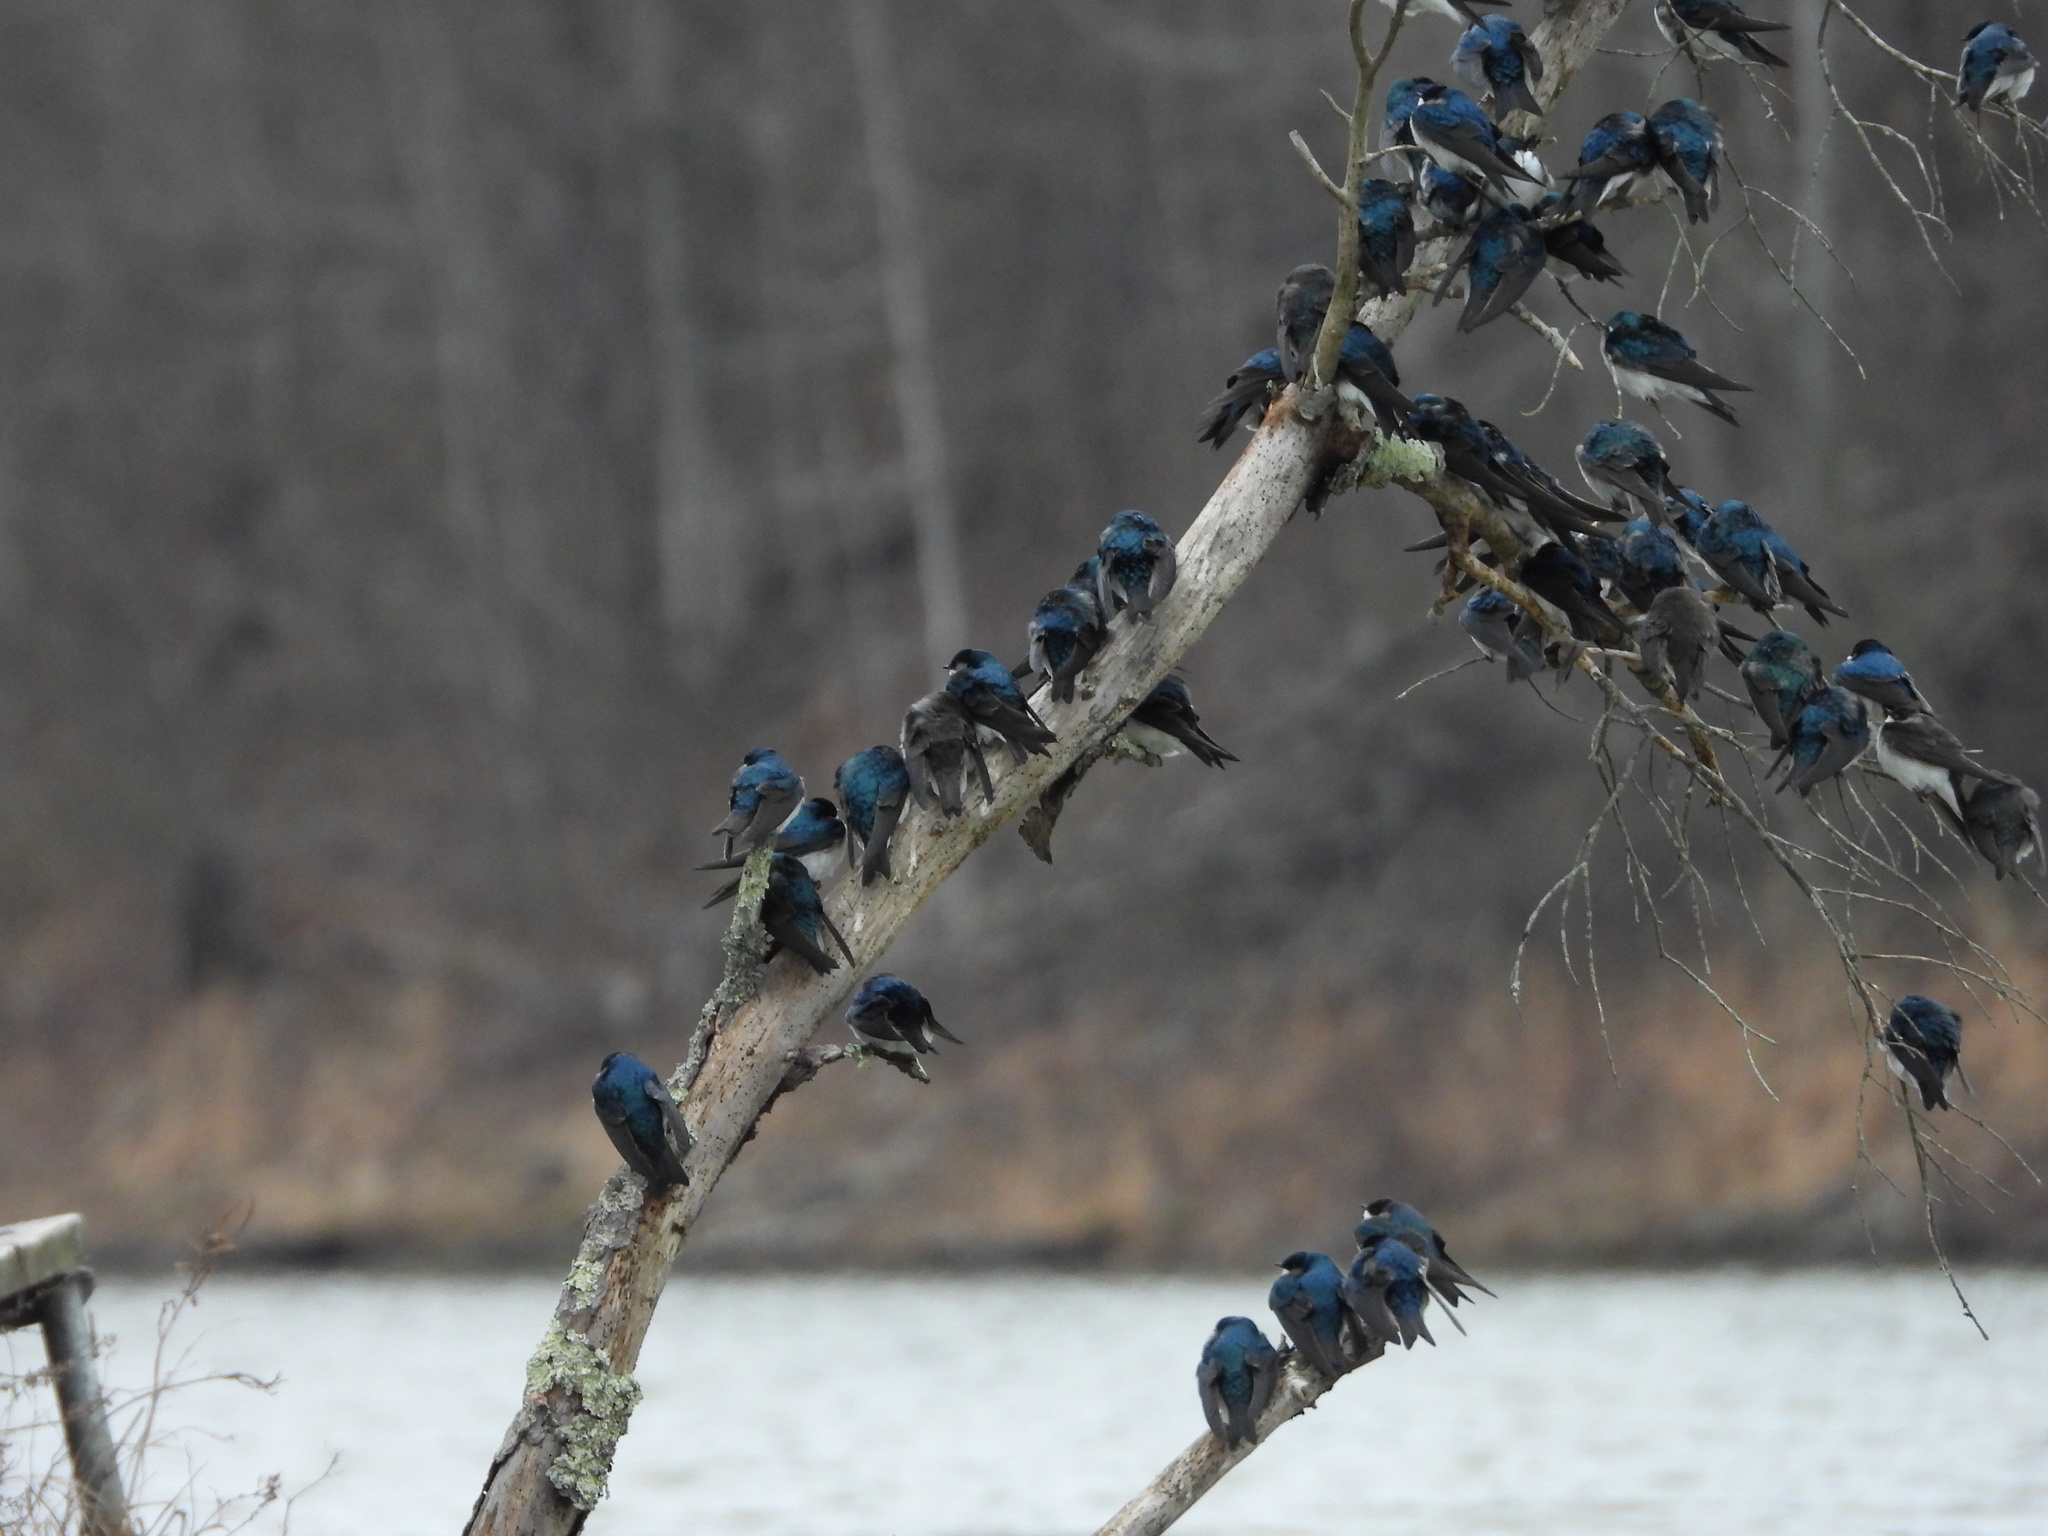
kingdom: Animalia
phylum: Chordata
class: Aves
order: Passeriformes
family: Hirundinidae
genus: Tachycineta
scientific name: Tachycineta bicolor
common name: Tree swallow
